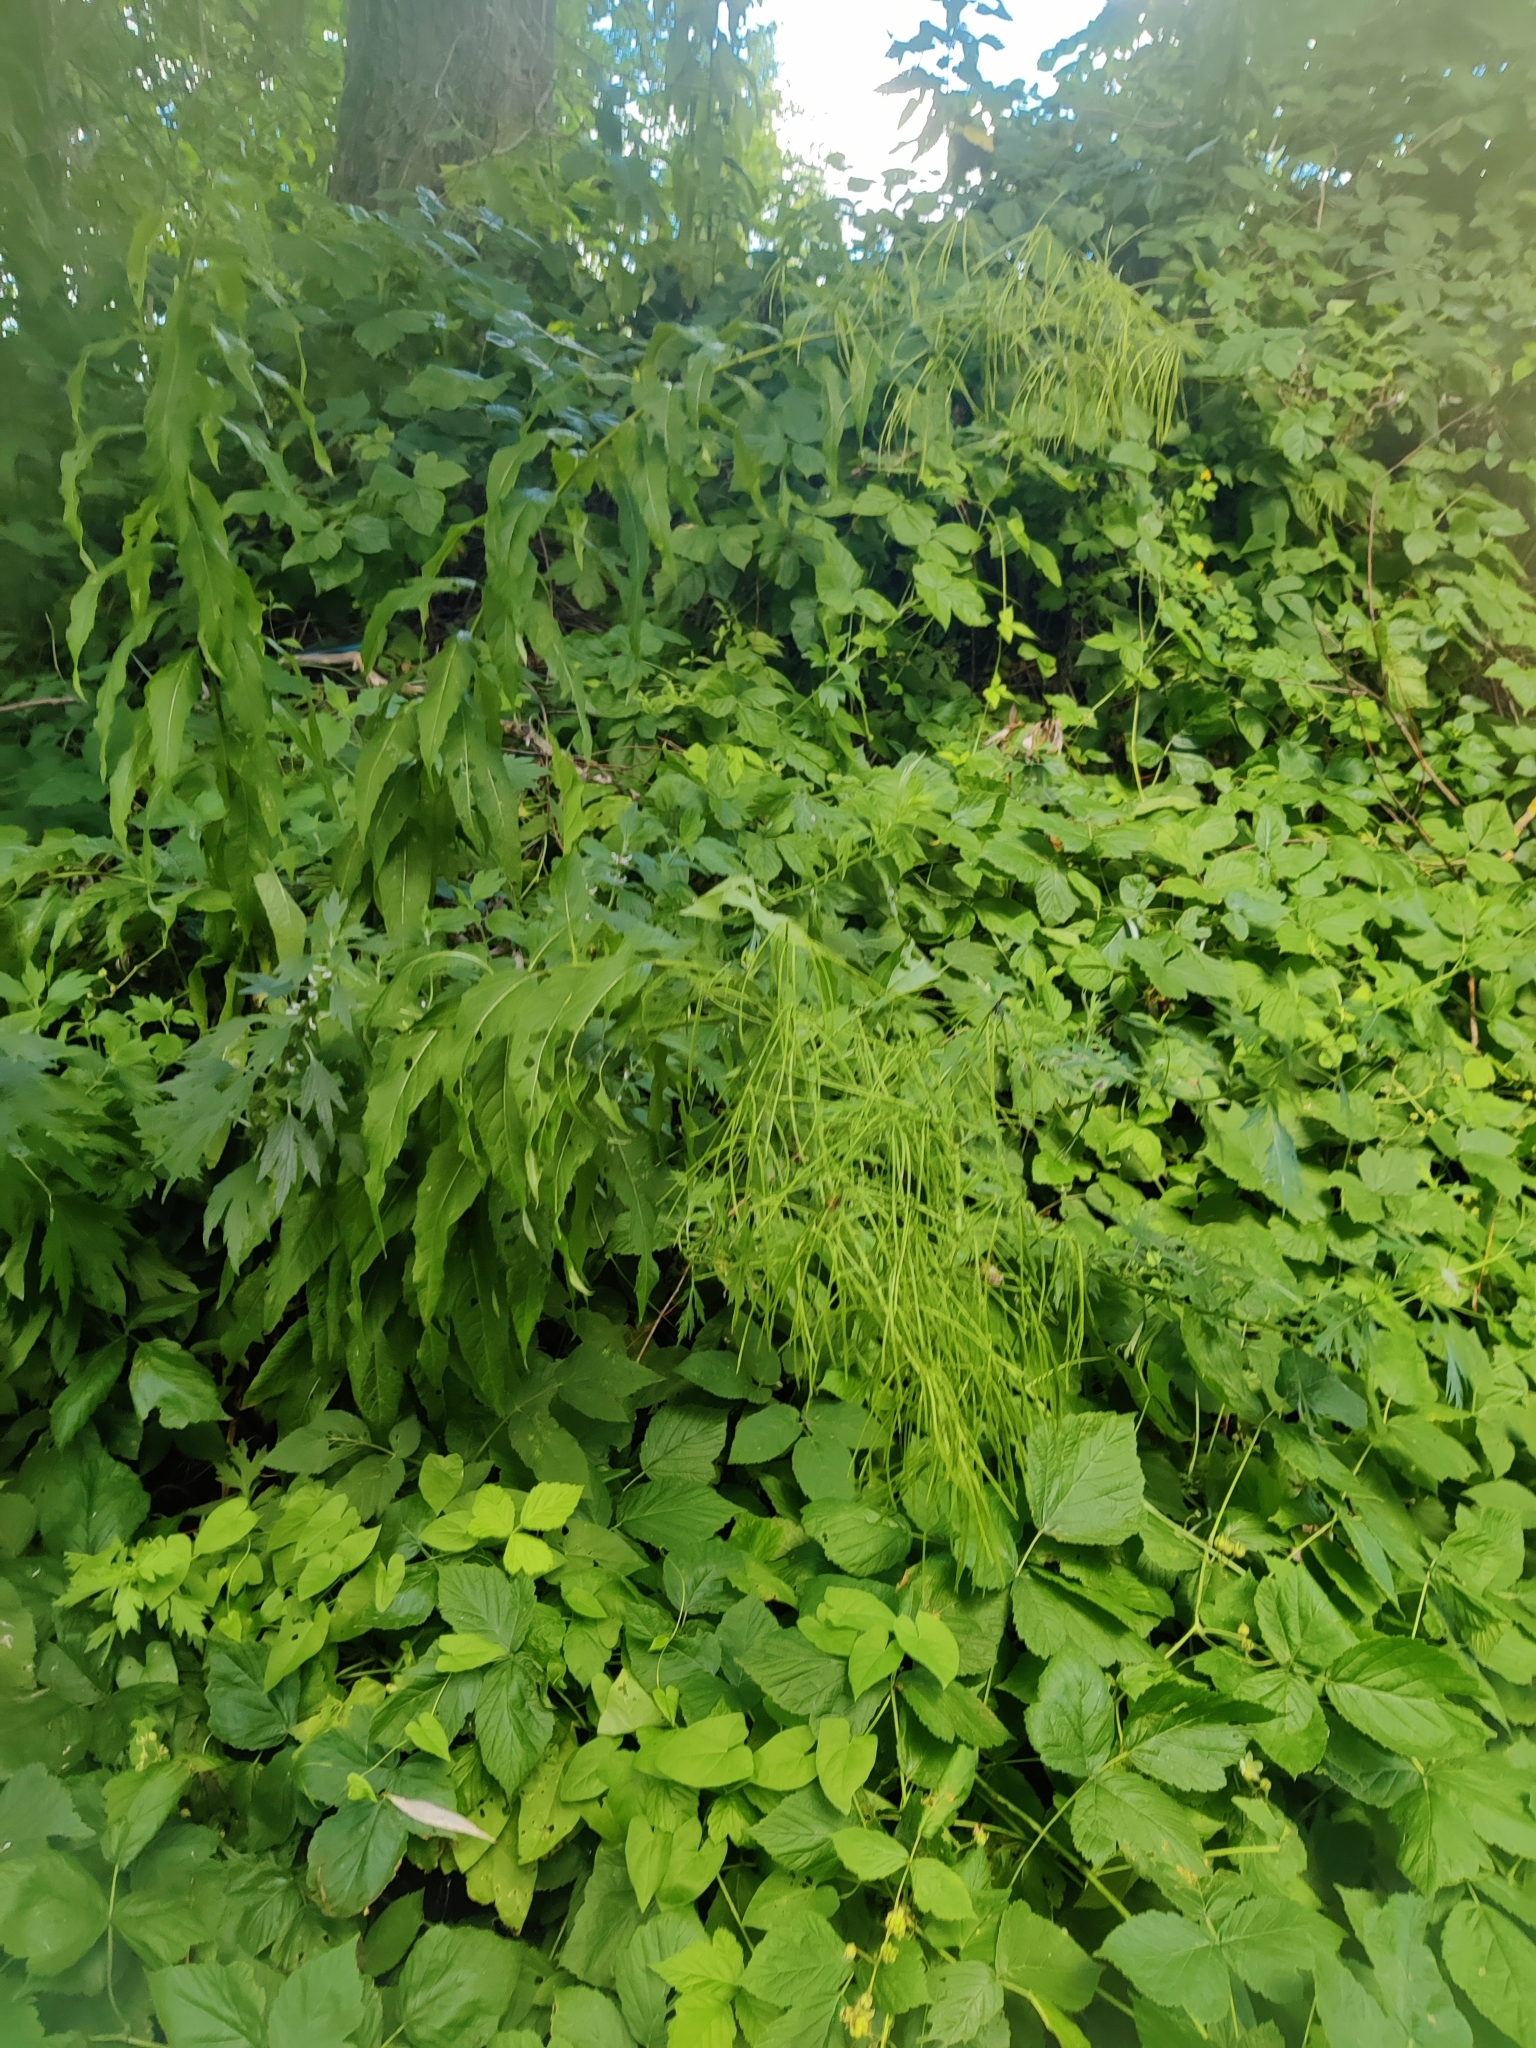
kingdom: Plantae
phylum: Tracheophyta
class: Magnoliopsida
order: Brassicales
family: Brassicaceae
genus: Sisymbrium
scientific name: Sisymbrium strictissimum
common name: Perennial rocket
